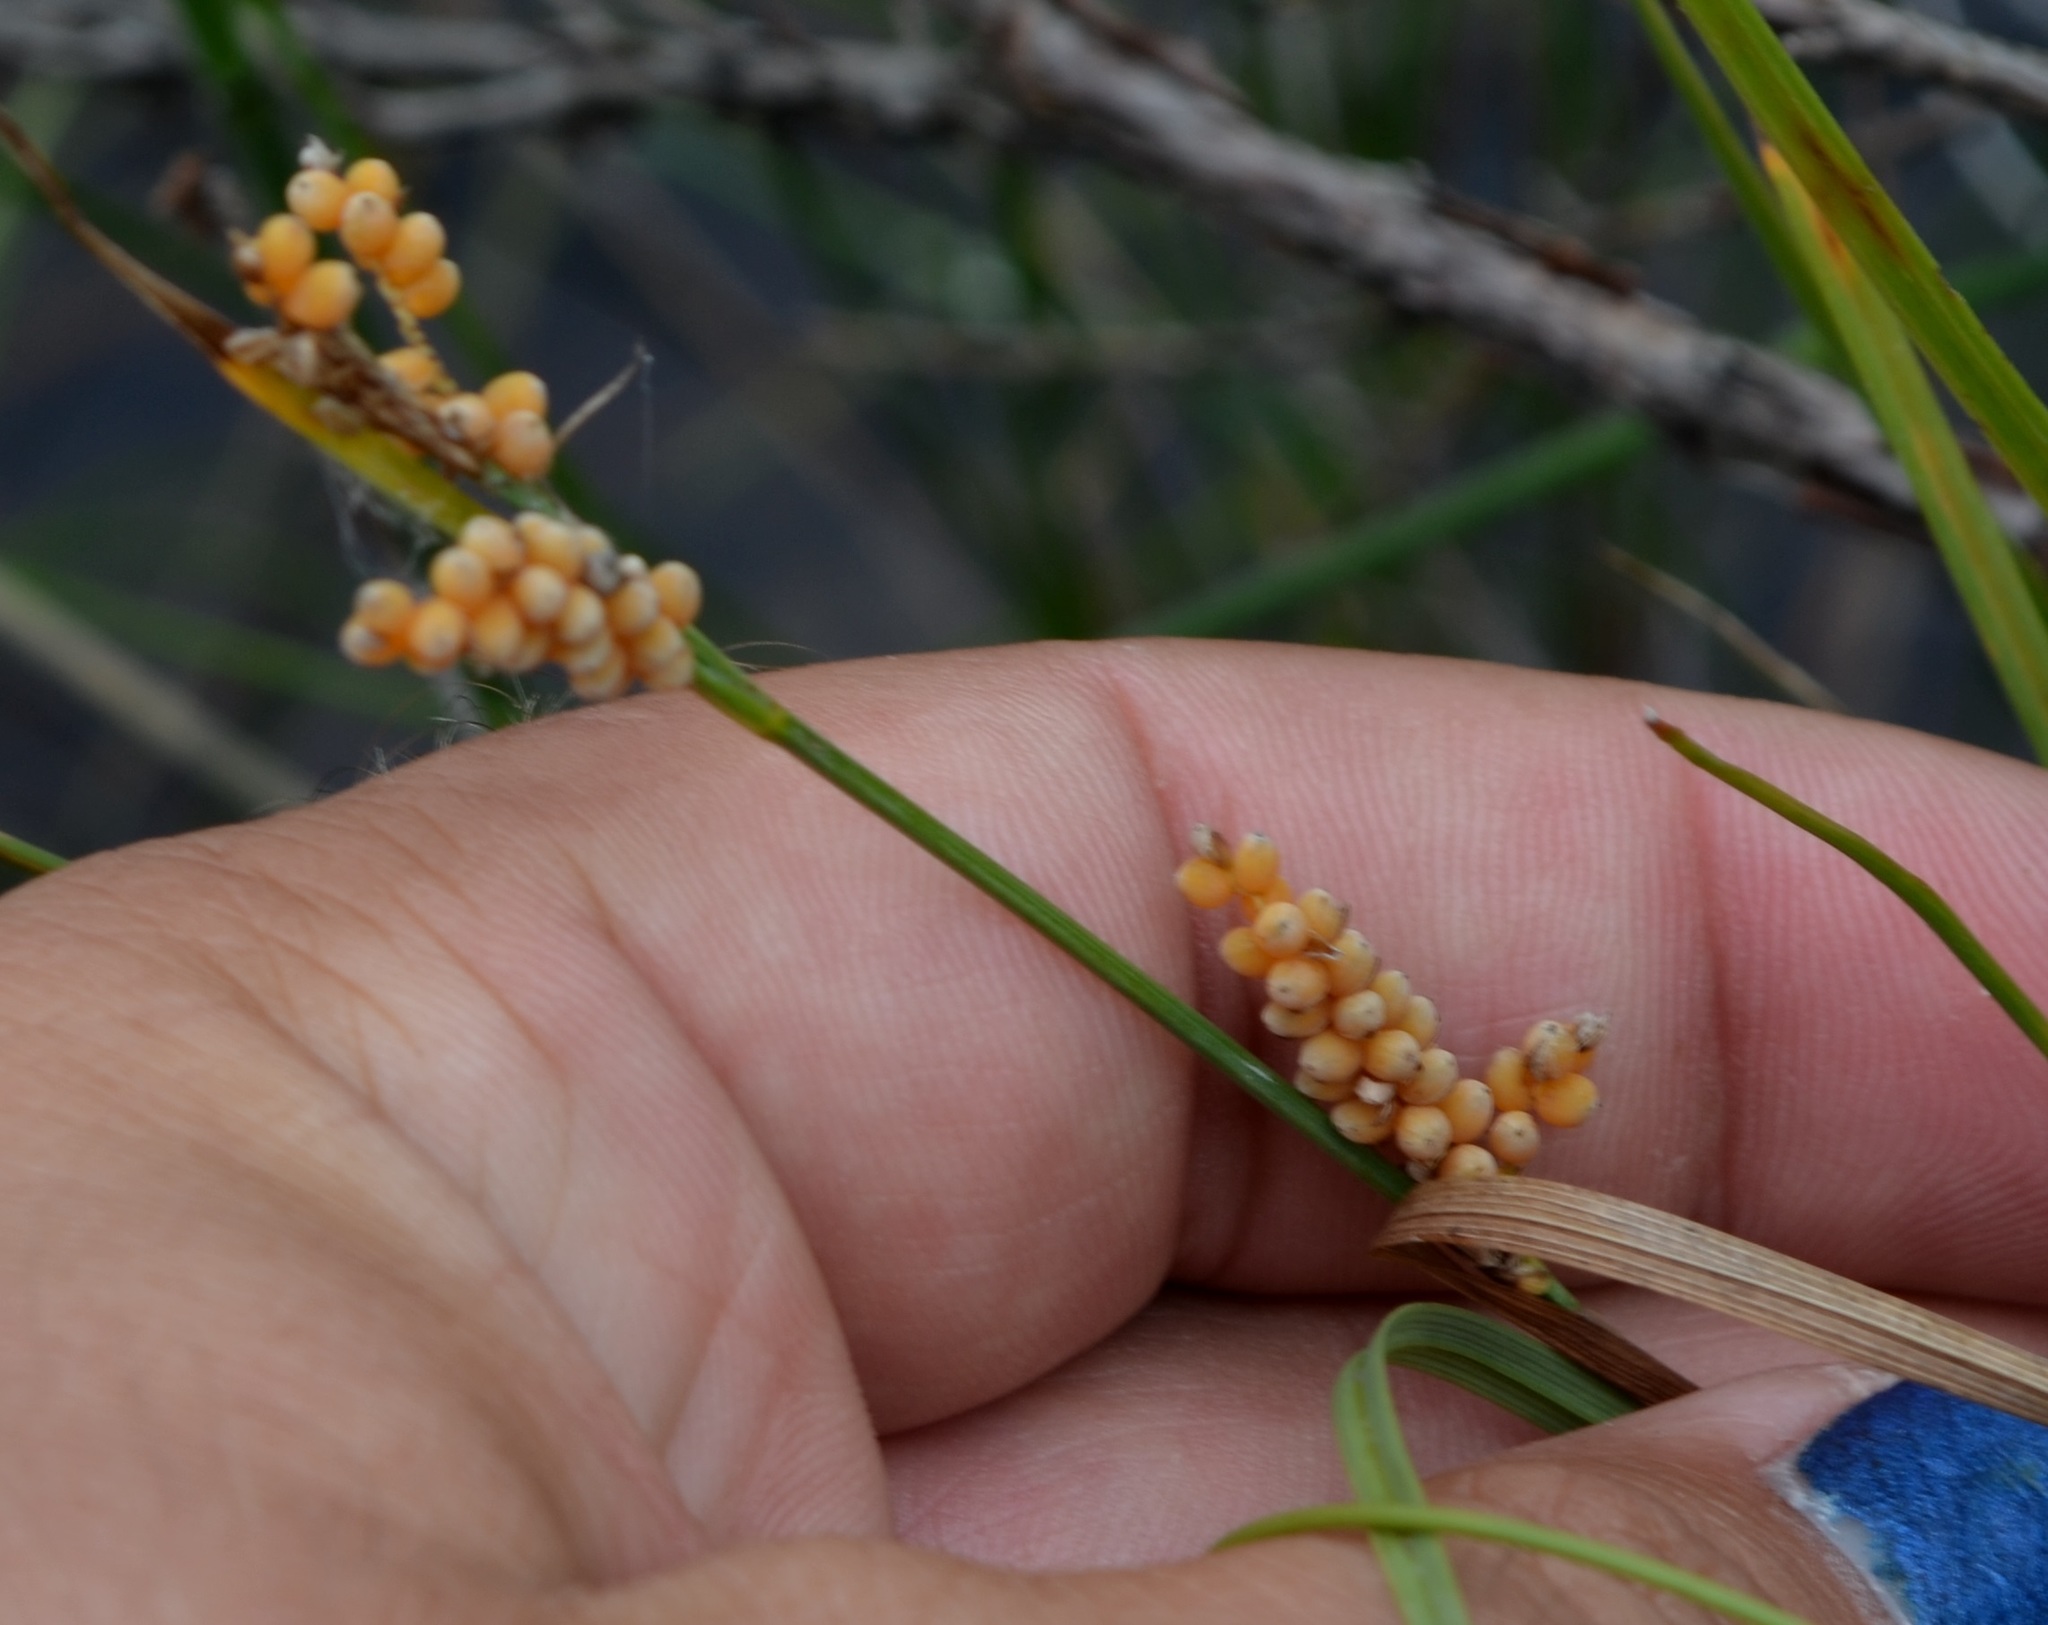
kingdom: Plantae
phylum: Tracheophyta
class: Liliopsida
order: Poales
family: Cyperaceae
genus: Carex
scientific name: Carex aurea
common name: Golden sedge
